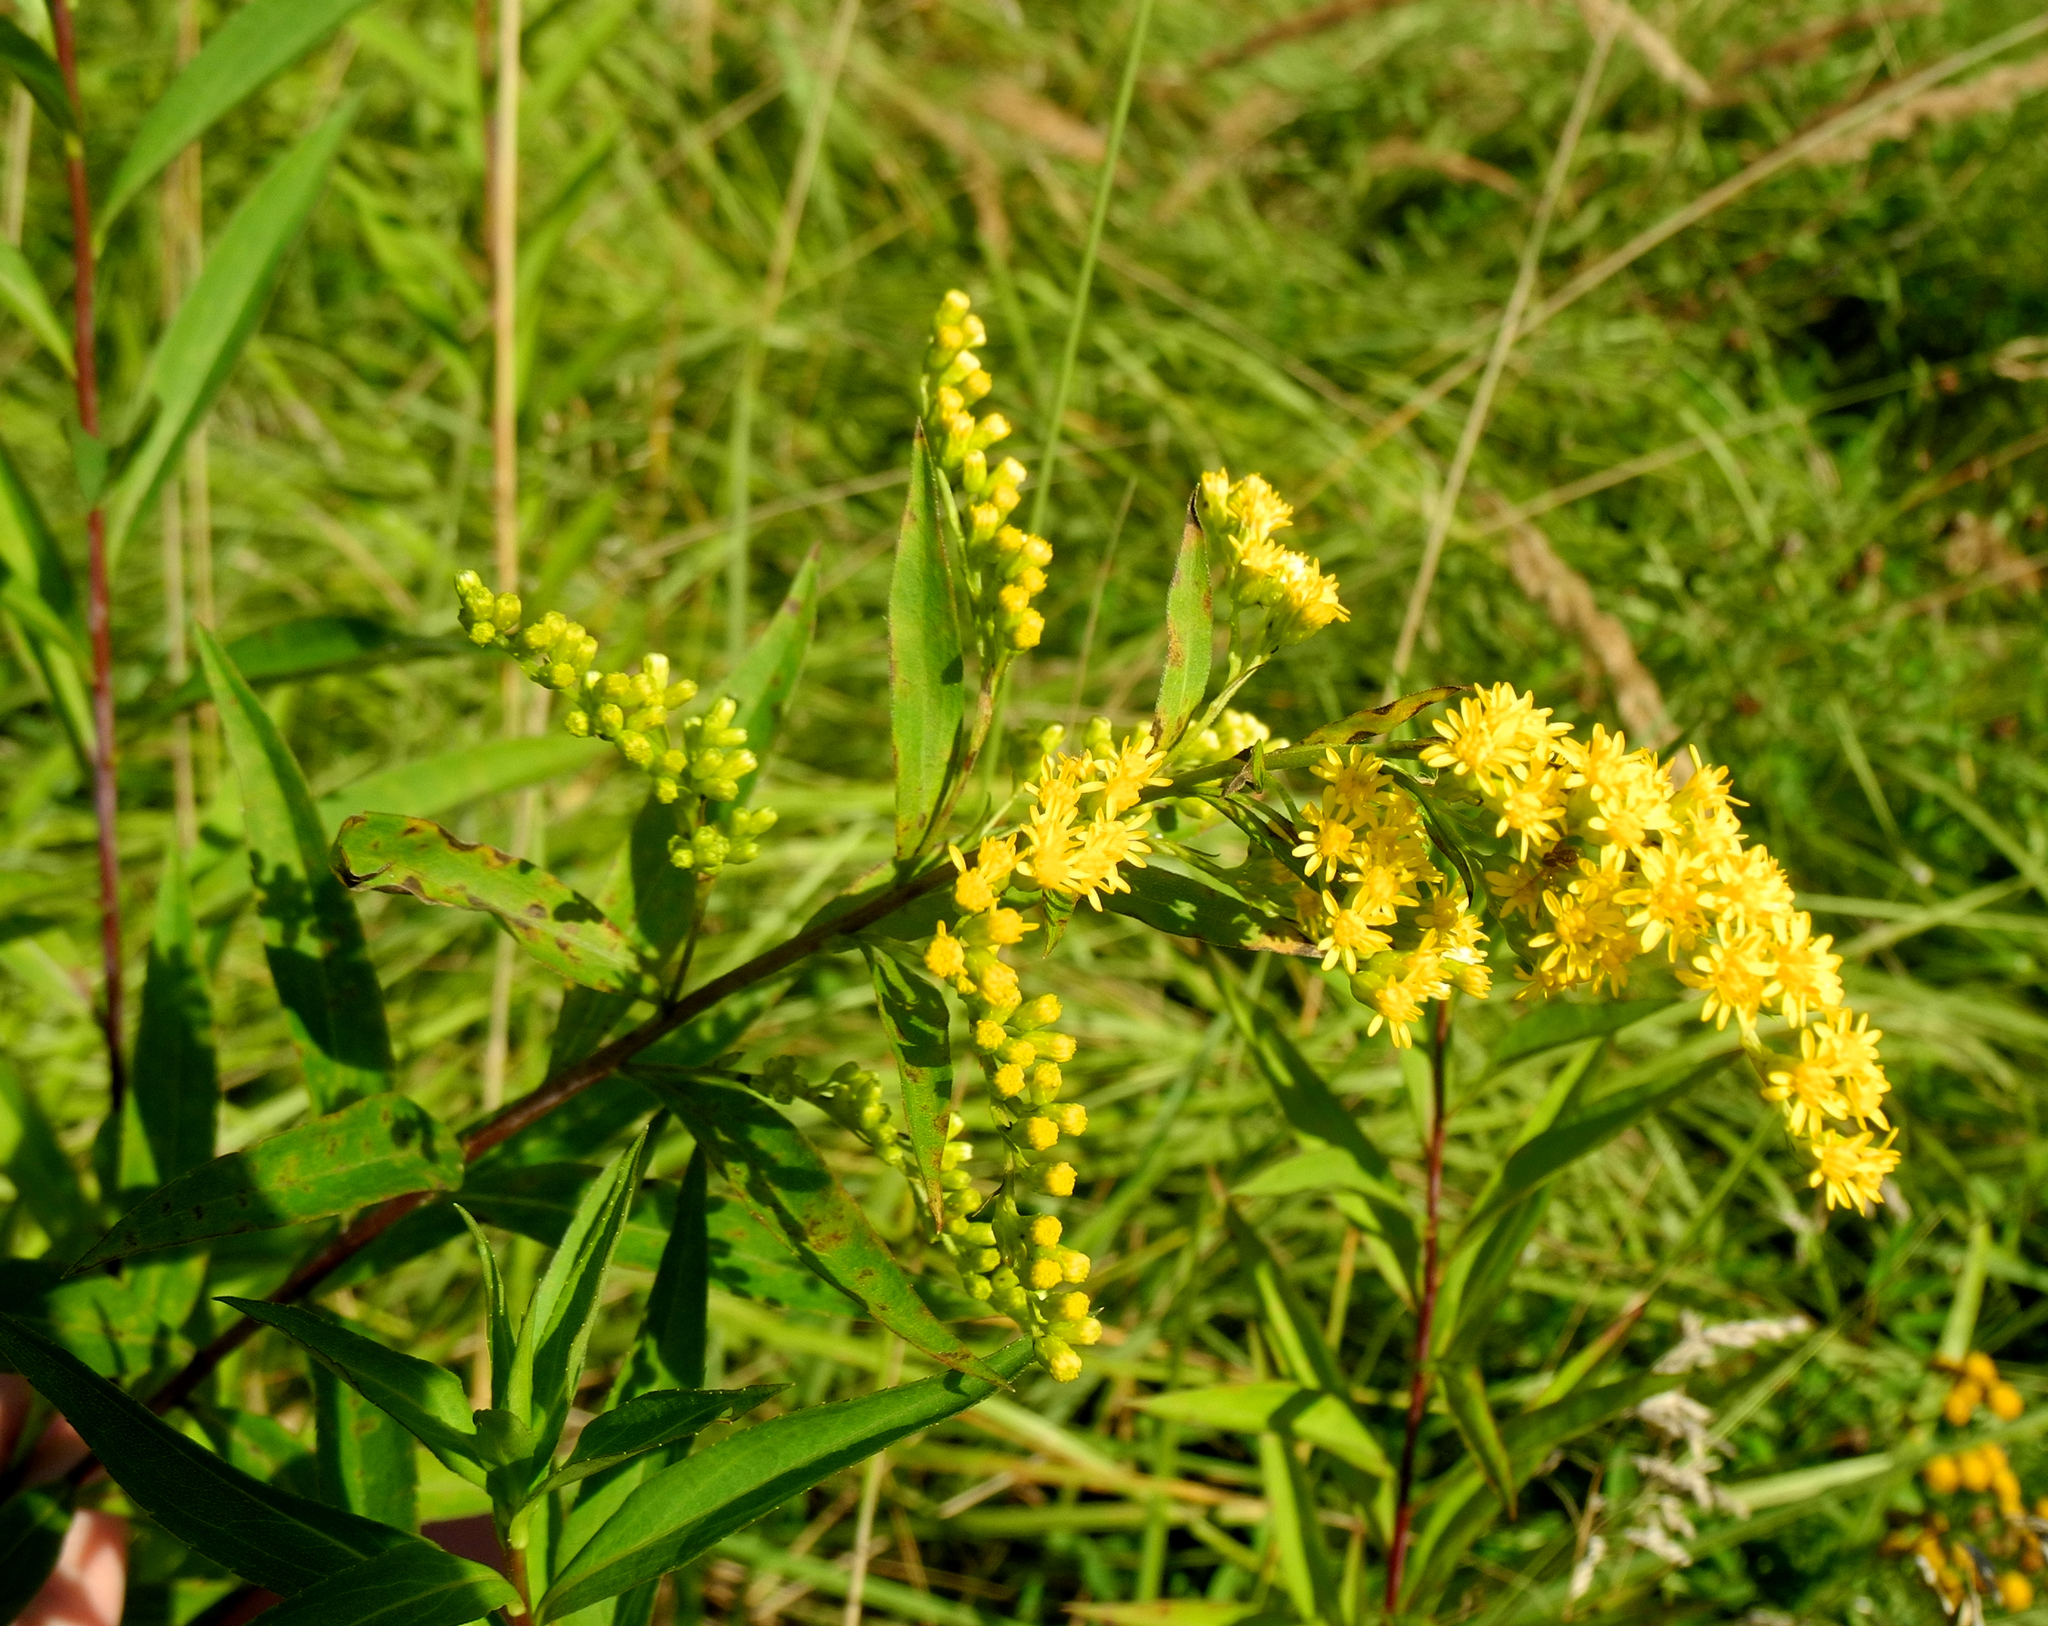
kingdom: Plantae
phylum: Tracheophyta
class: Magnoliopsida
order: Asterales
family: Asteraceae
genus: Solidago
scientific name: Solidago gigantea
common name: Giant goldenrod
